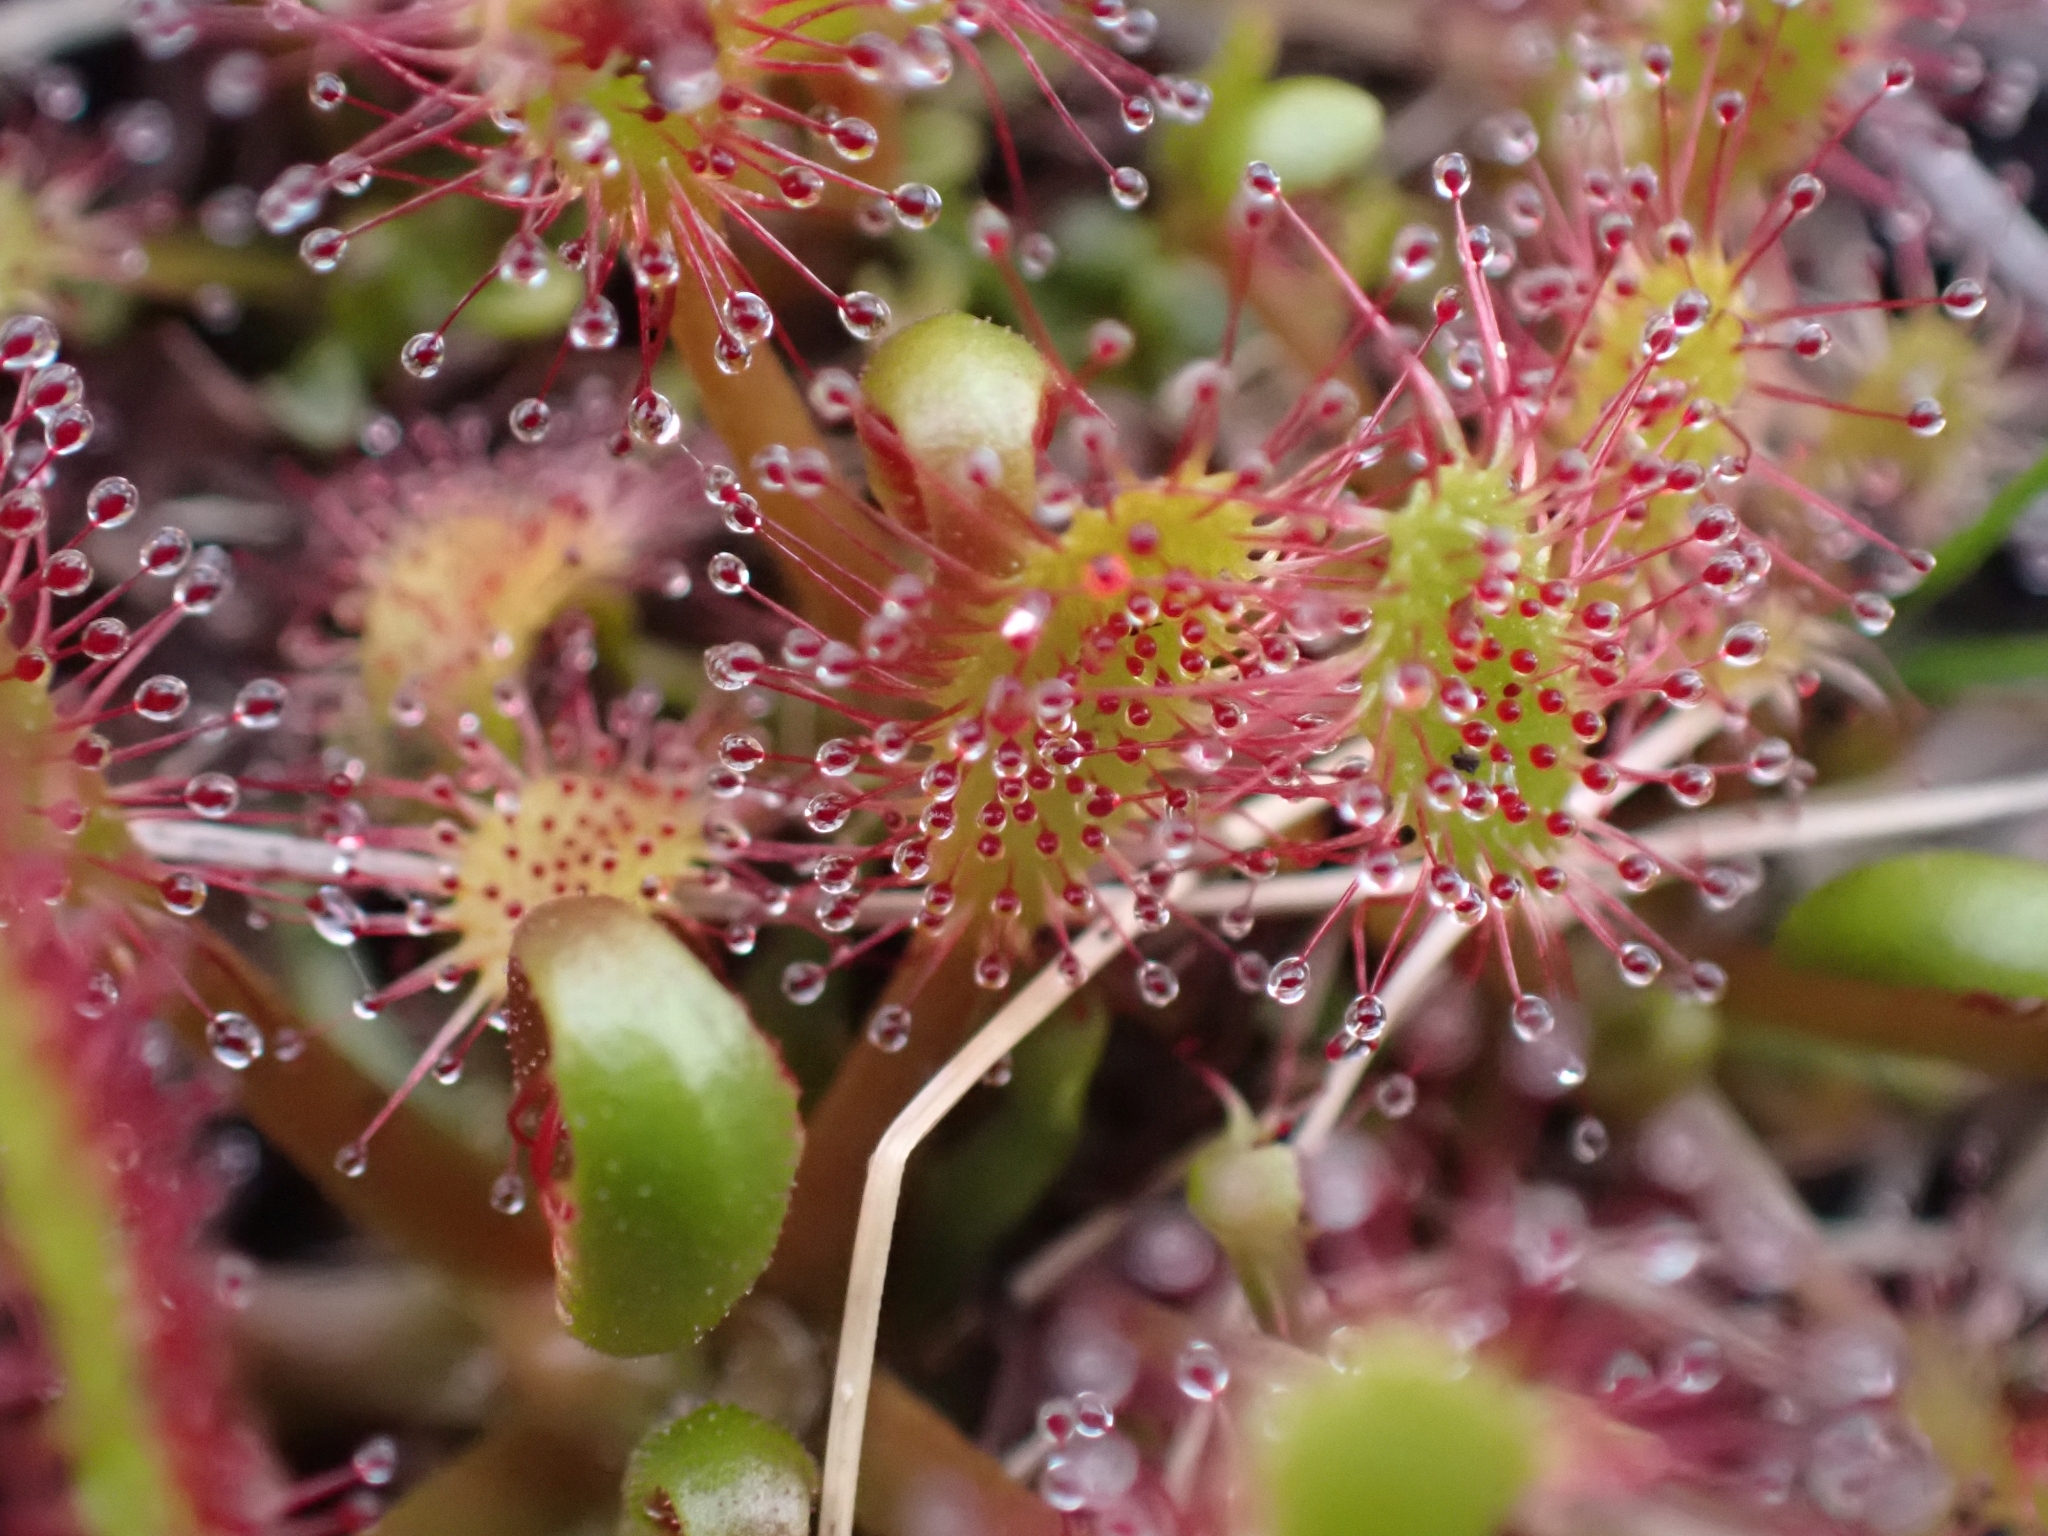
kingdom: Plantae
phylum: Tracheophyta
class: Magnoliopsida
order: Caryophyllales
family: Droseraceae
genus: Drosera
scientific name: Drosera anglica
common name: Great sundew
